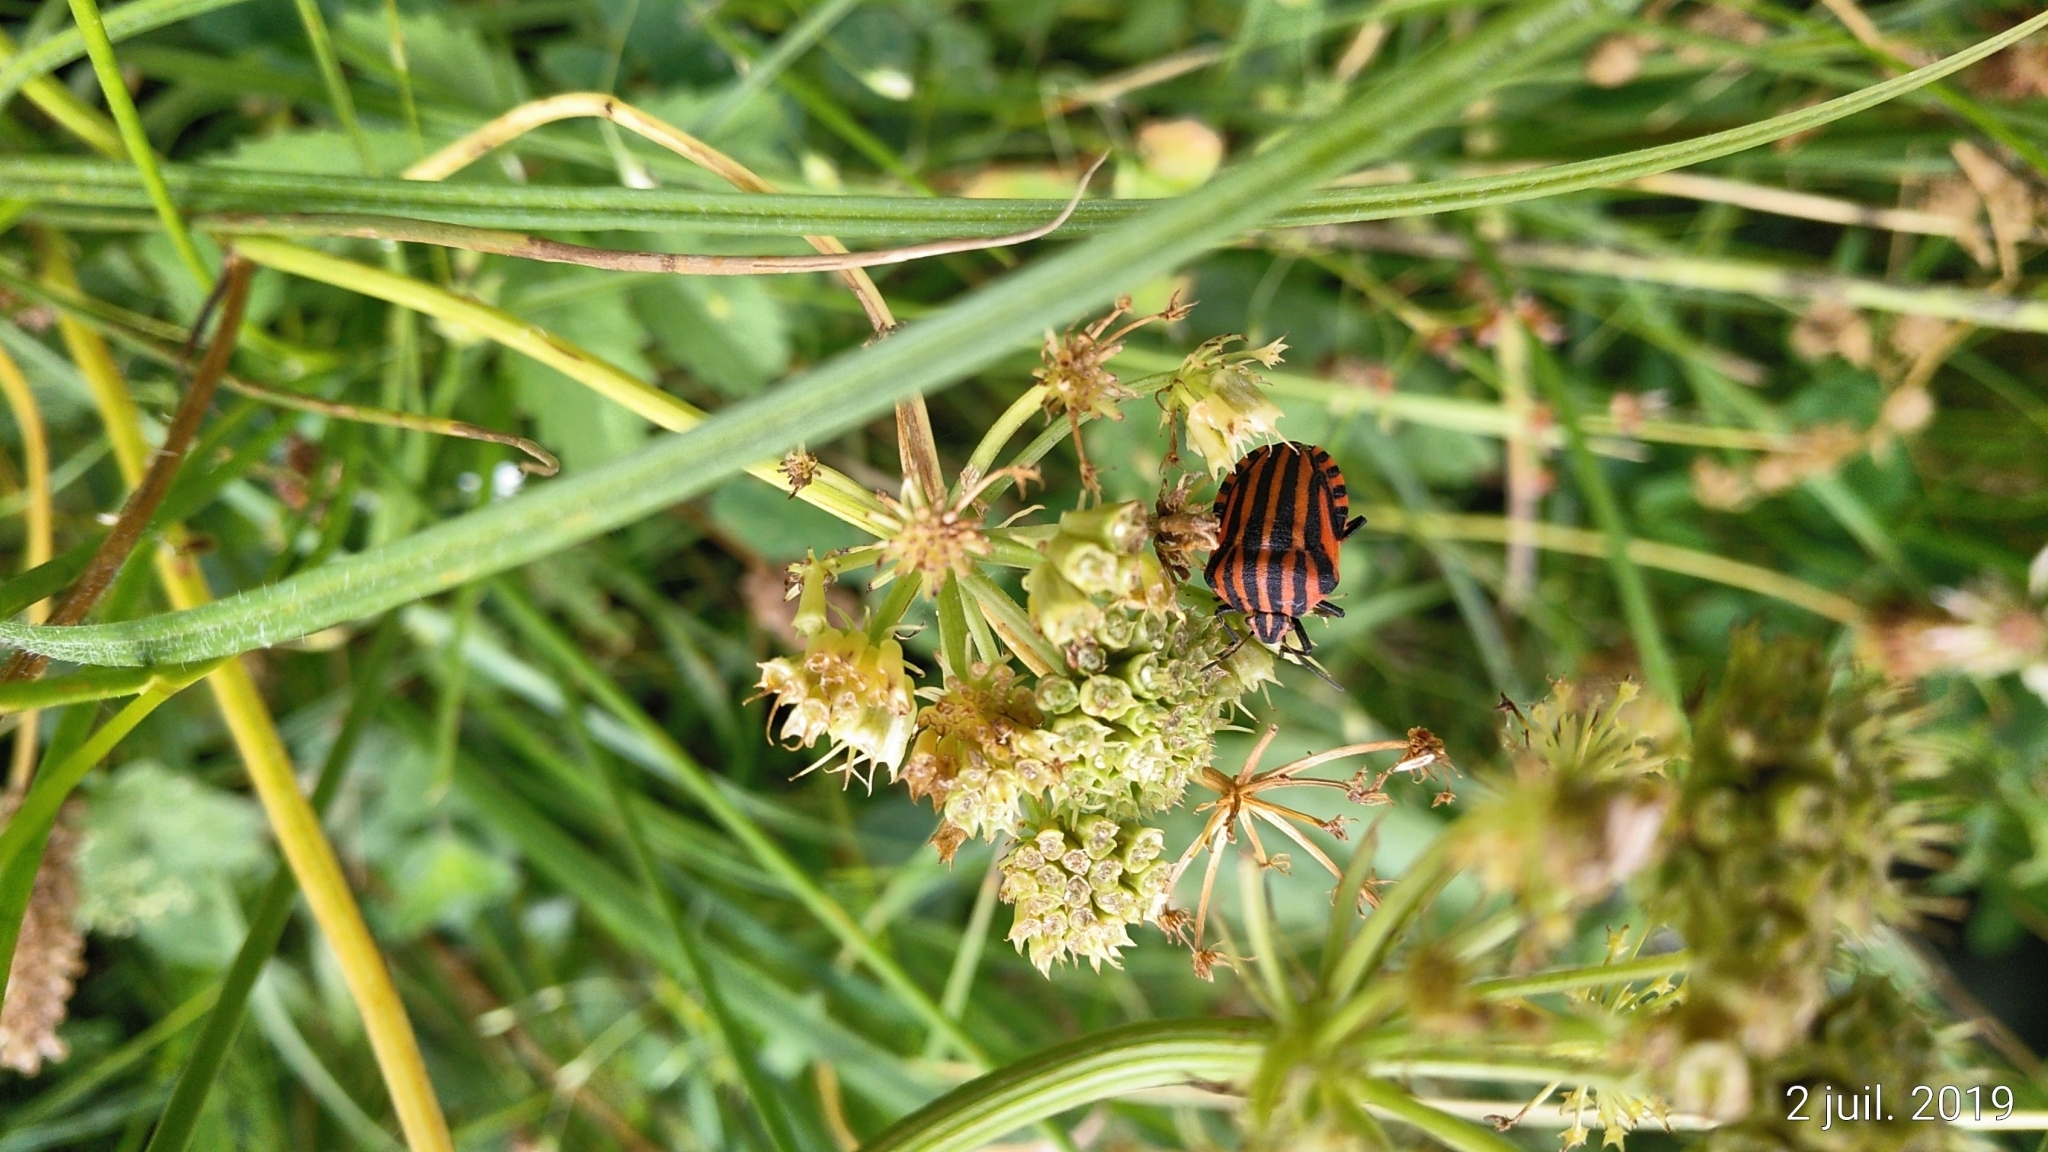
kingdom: Animalia
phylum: Arthropoda
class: Insecta
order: Hemiptera
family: Pentatomidae
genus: Graphosoma
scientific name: Graphosoma italicum
